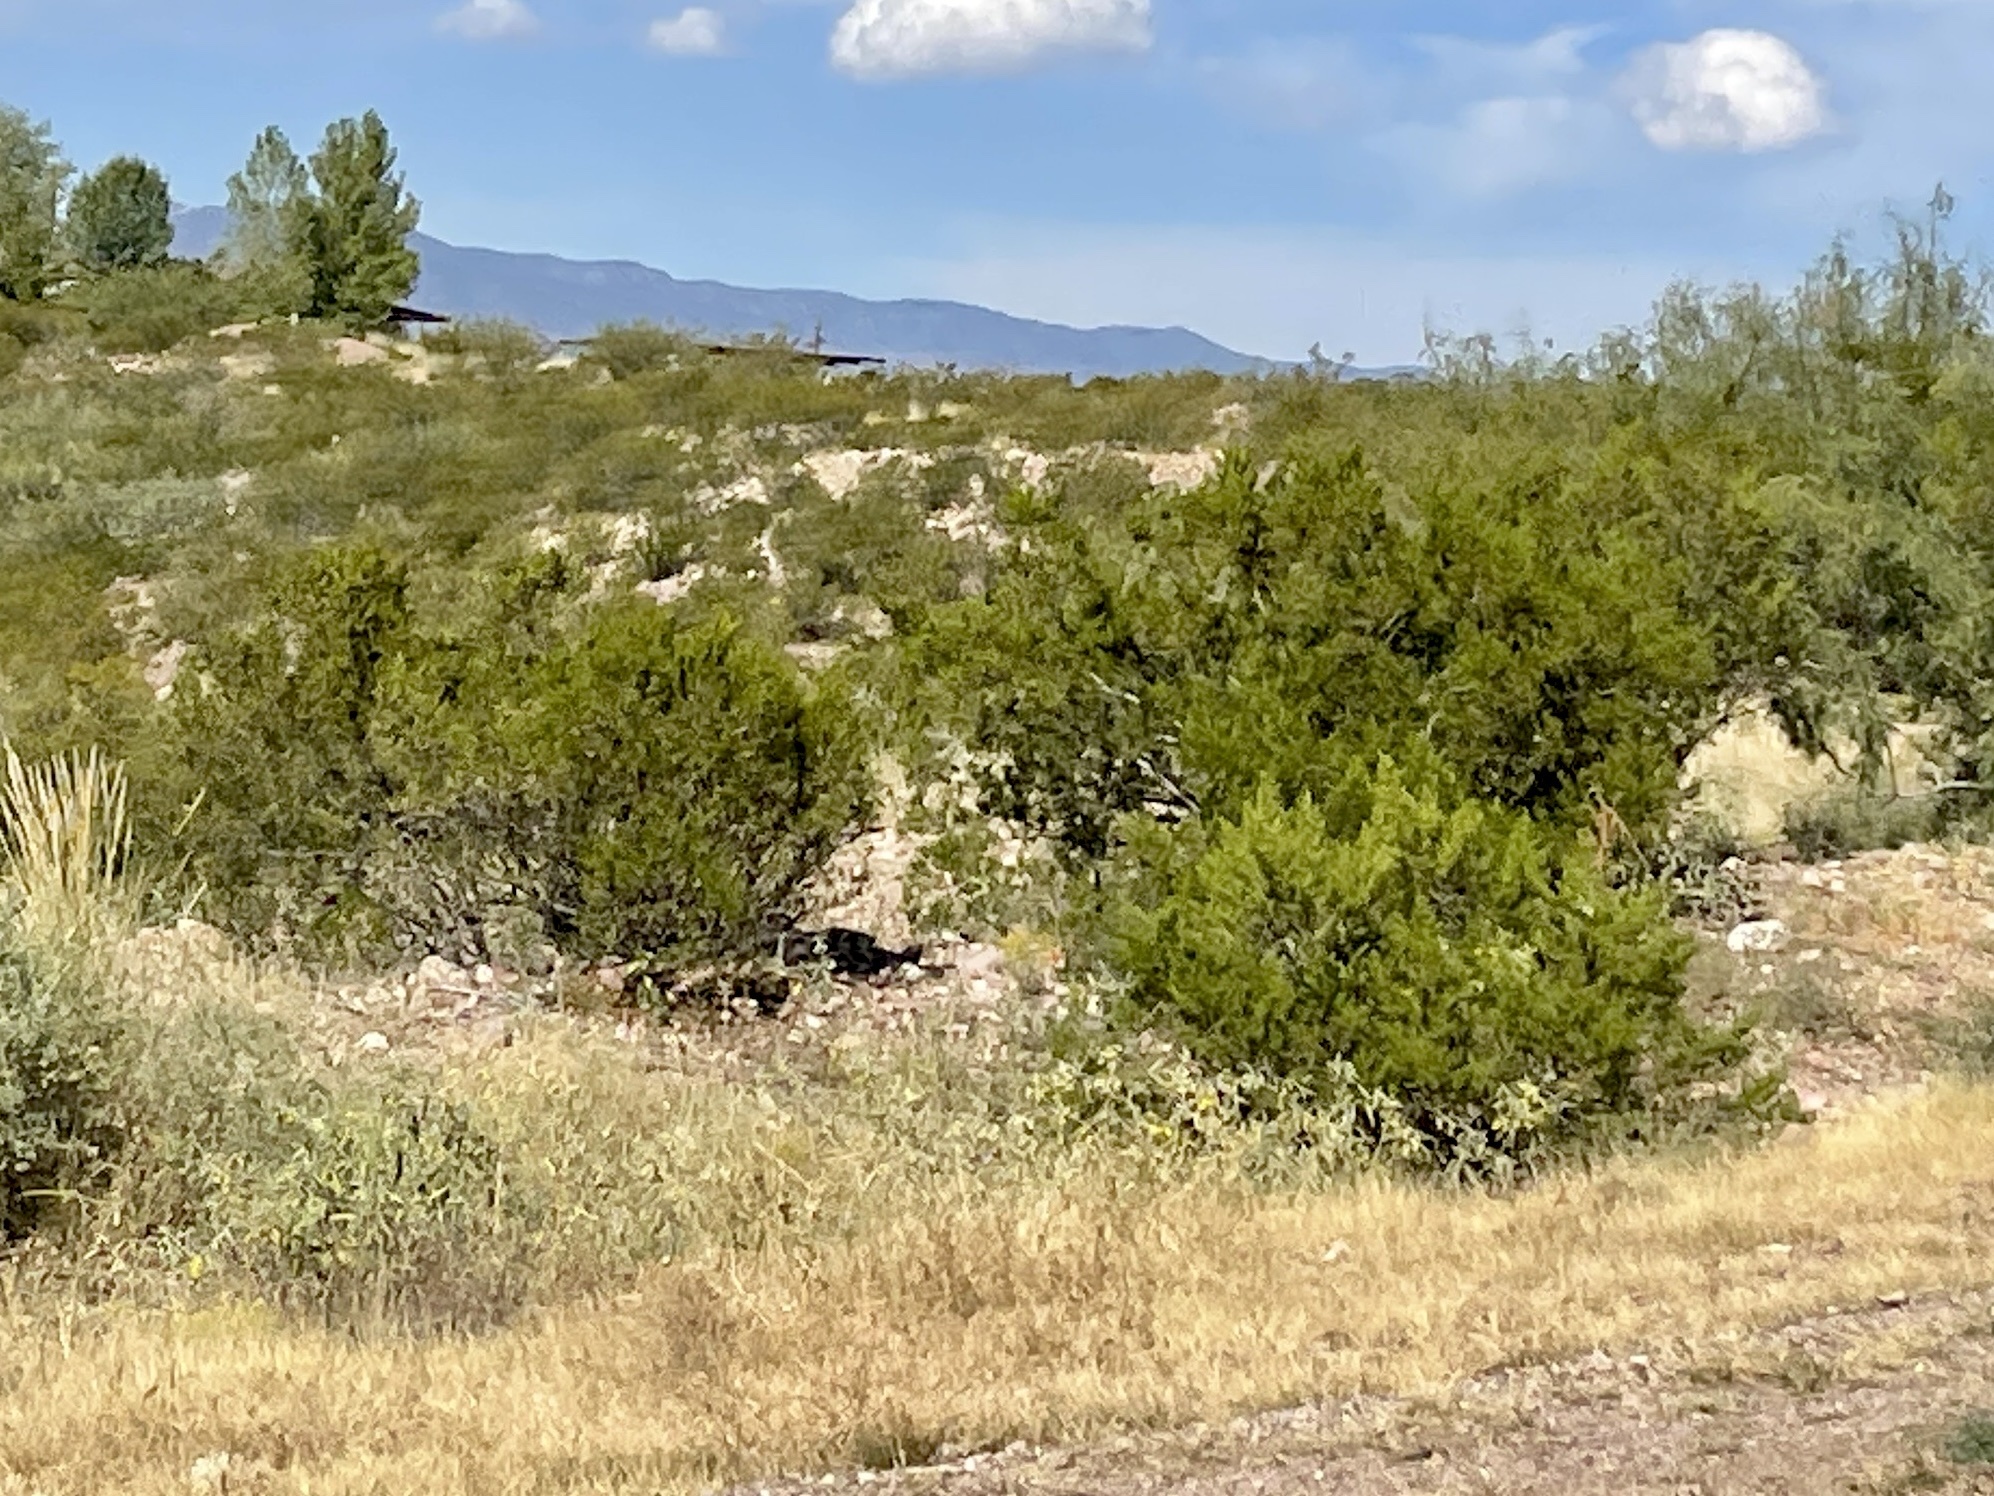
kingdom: Plantae
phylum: Tracheophyta
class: Magnoliopsida
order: Zygophyllales
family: Zygophyllaceae
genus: Larrea
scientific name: Larrea tridentata
